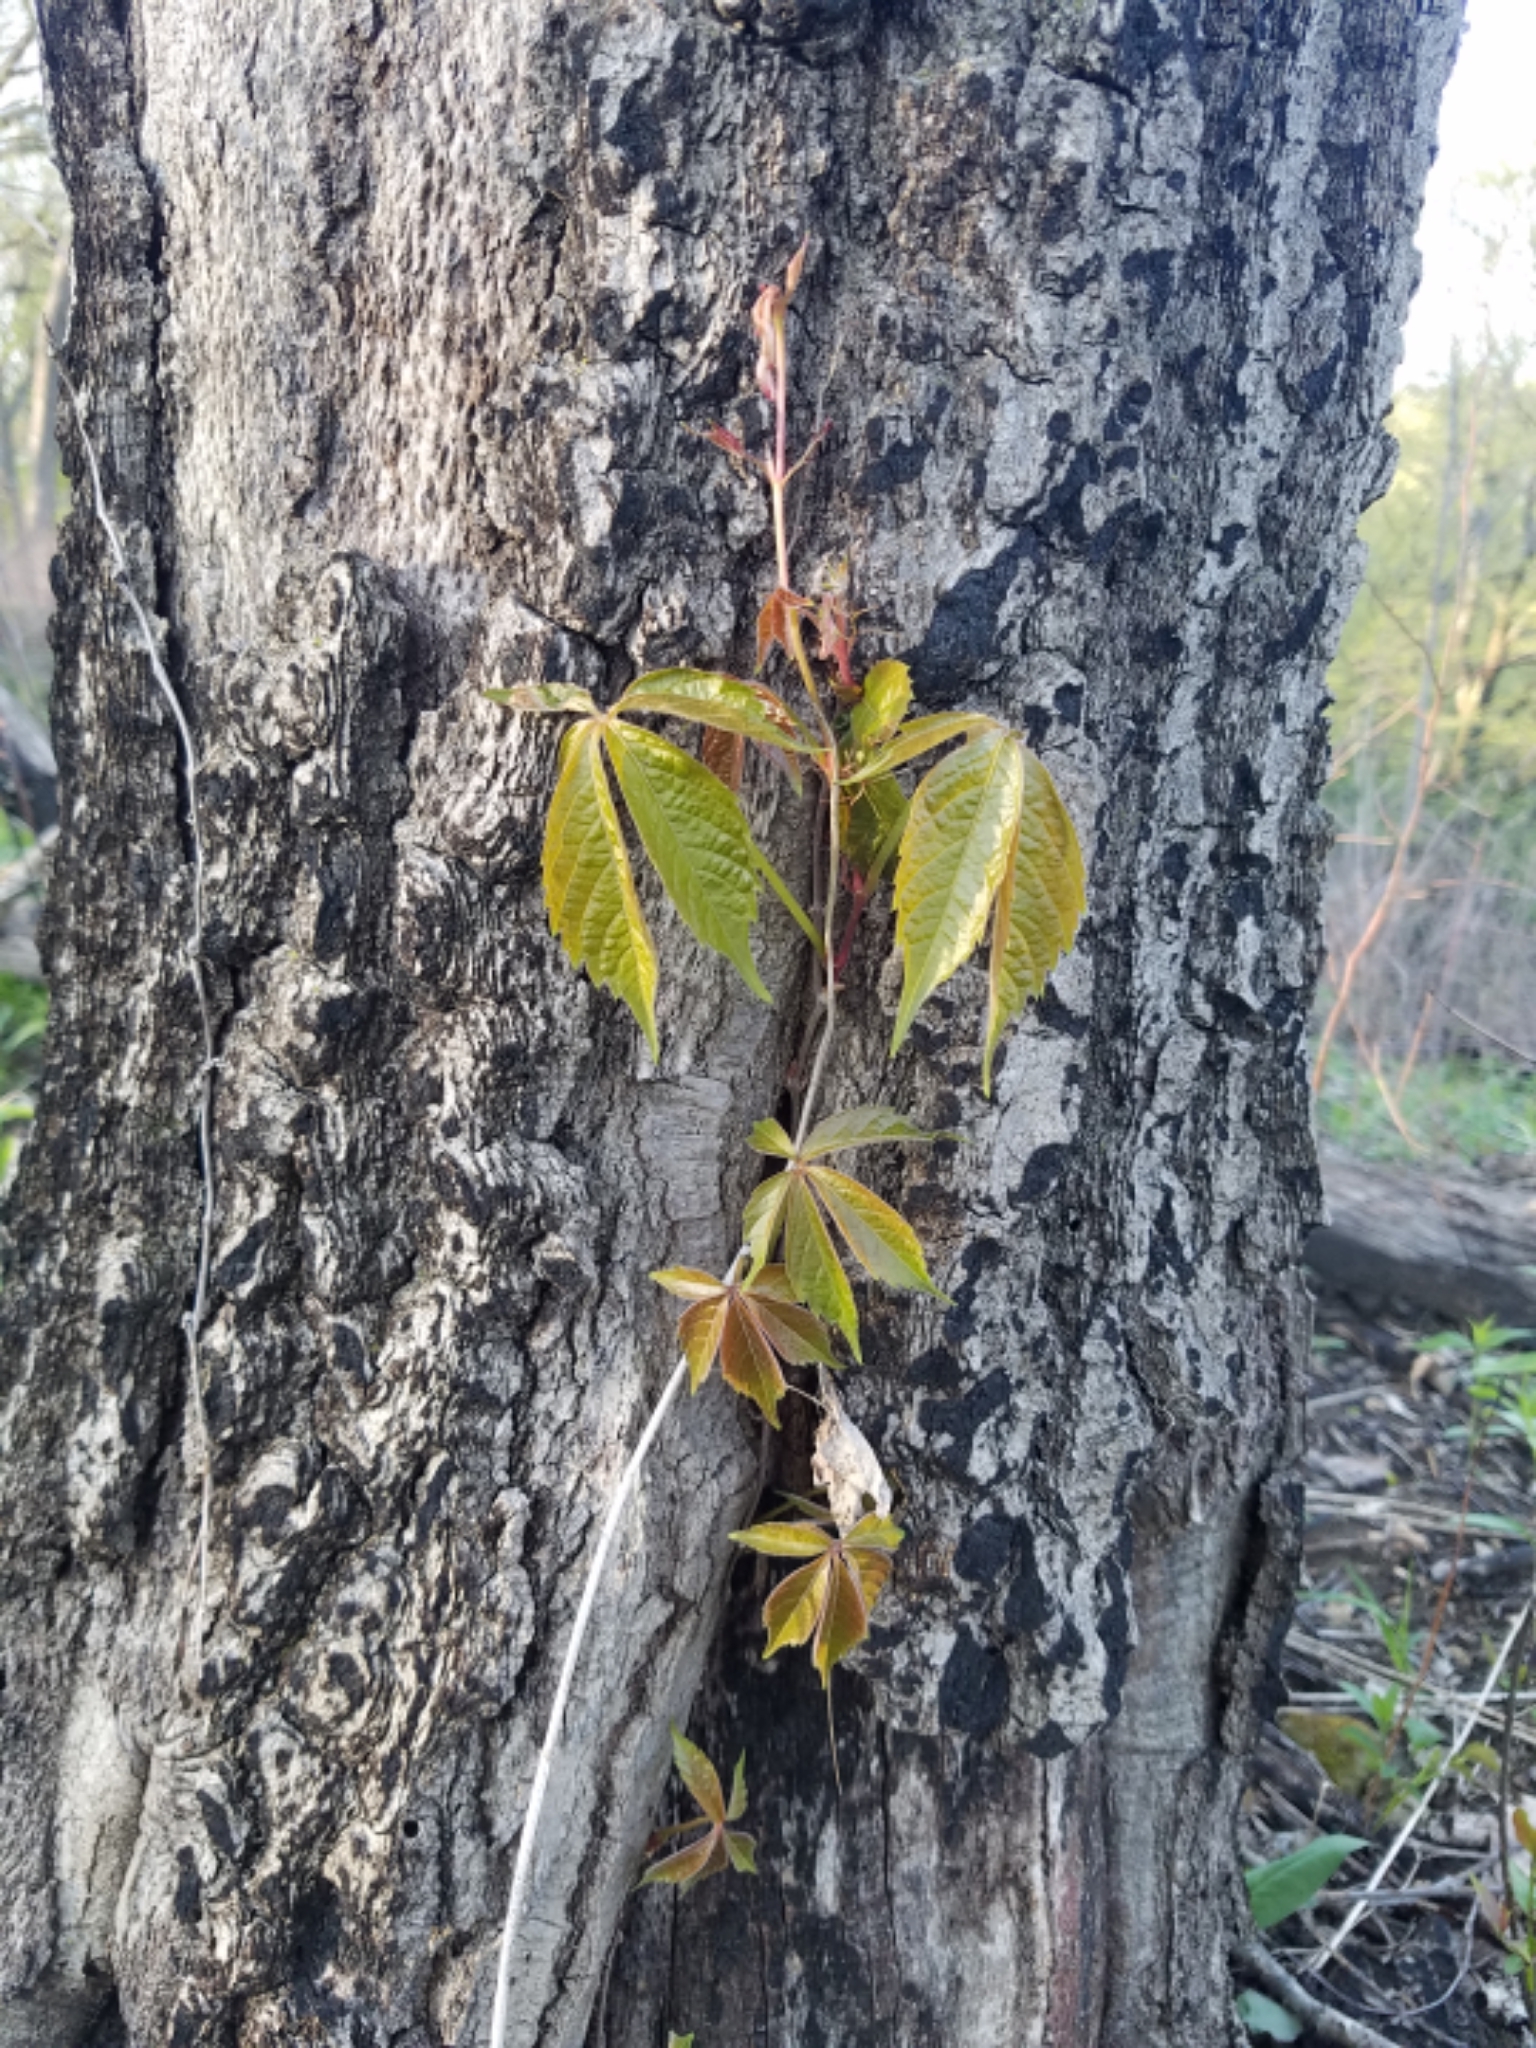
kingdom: Plantae
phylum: Tracheophyta
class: Magnoliopsida
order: Vitales
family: Vitaceae
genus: Parthenocissus
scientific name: Parthenocissus quinquefolia
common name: Virginia-creeper
